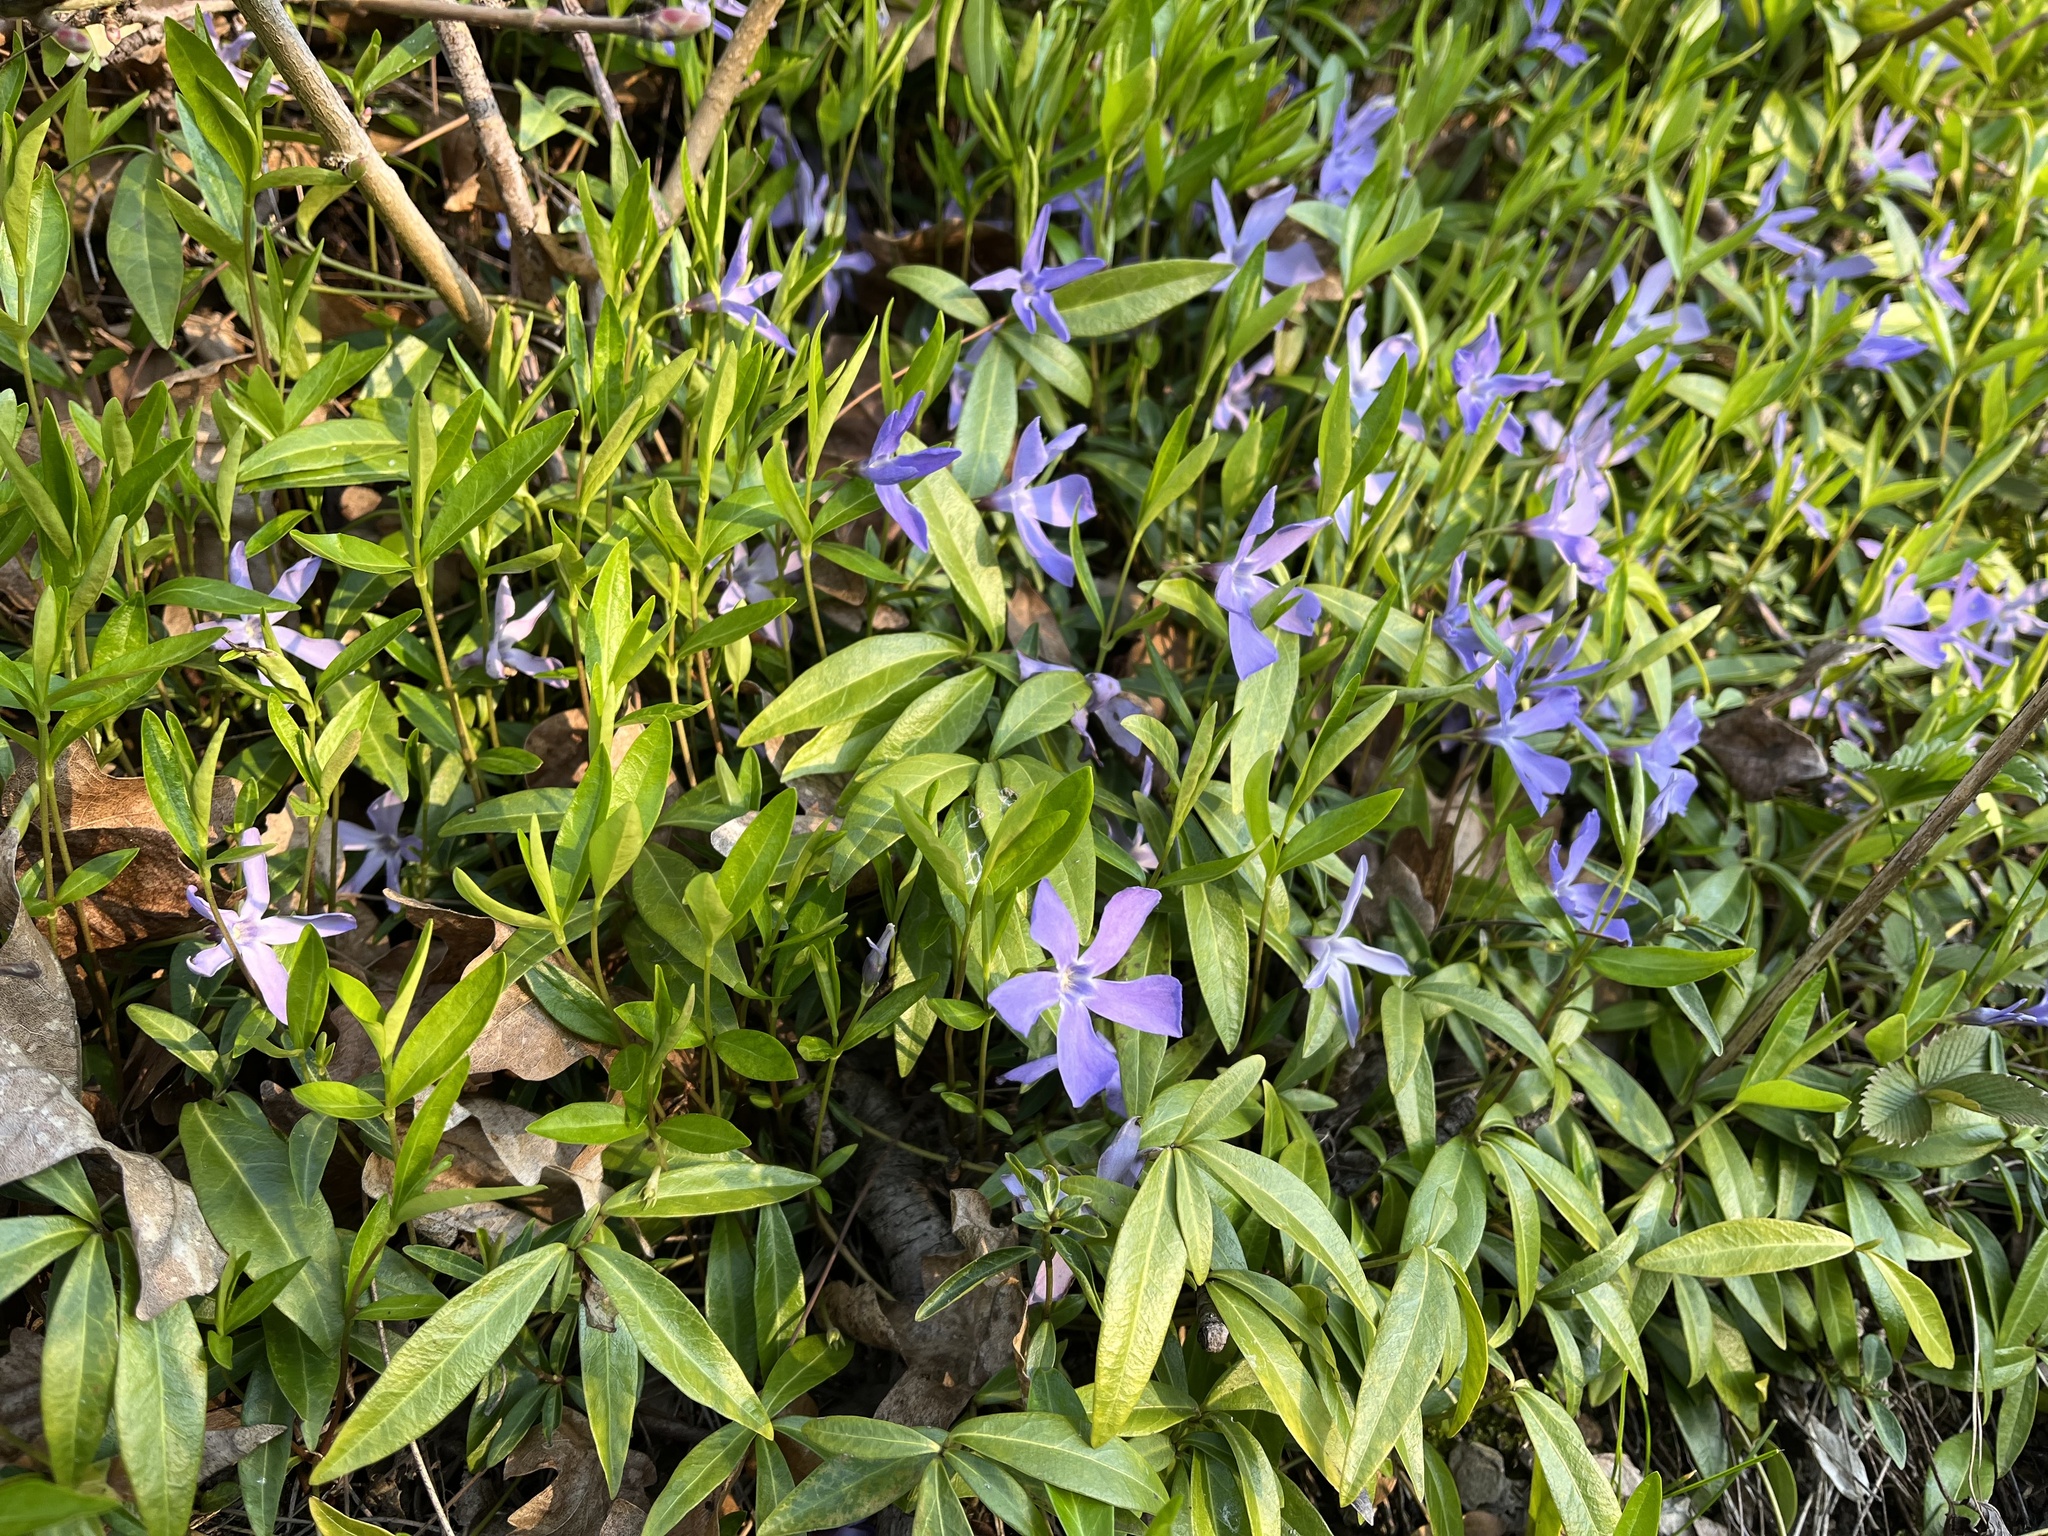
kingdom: Plantae
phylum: Tracheophyta
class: Magnoliopsida
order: Gentianales
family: Apocynaceae
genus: Vinca
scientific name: Vinca minor
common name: Lesser periwinkle
